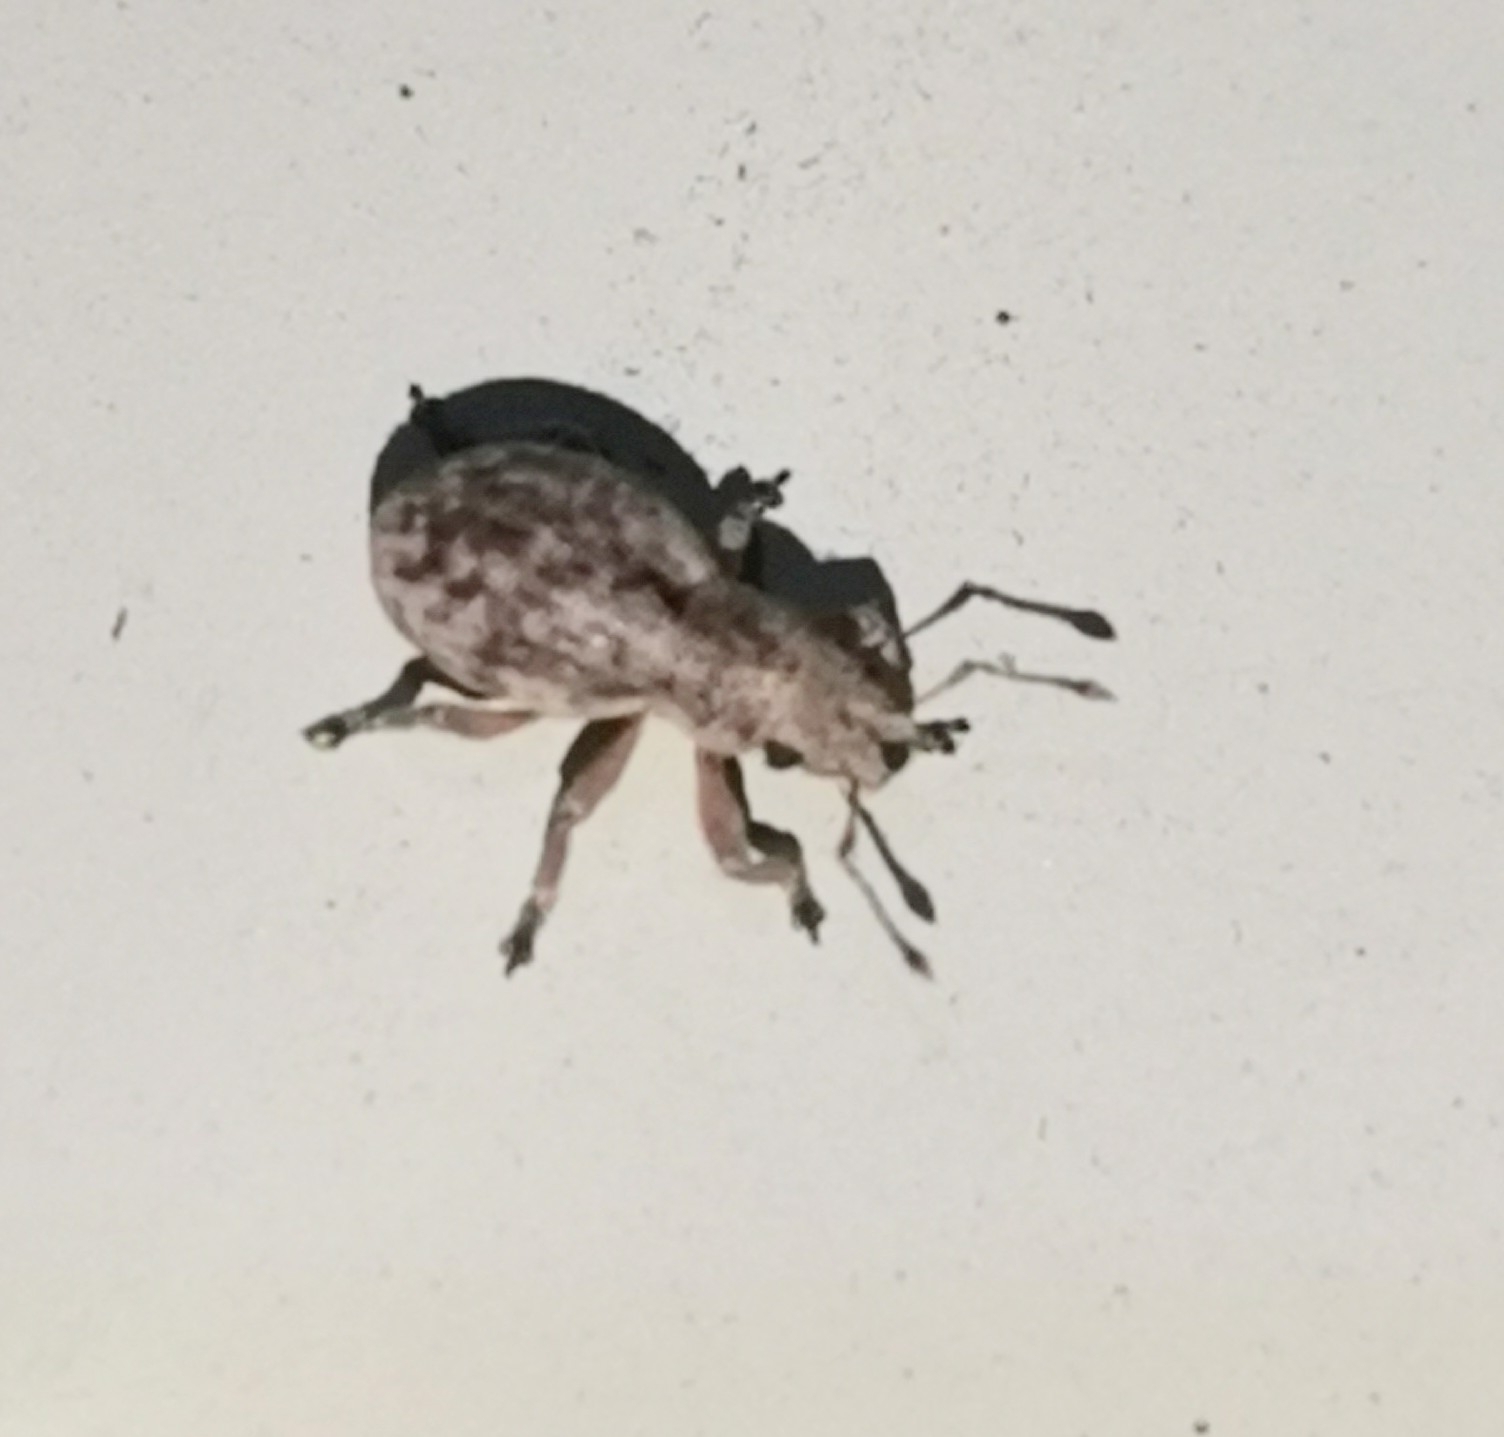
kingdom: Animalia
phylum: Arthropoda
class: Insecta
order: Coleoptera
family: Curculionidae
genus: Strophosoma
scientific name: Strophosoma capitatum
